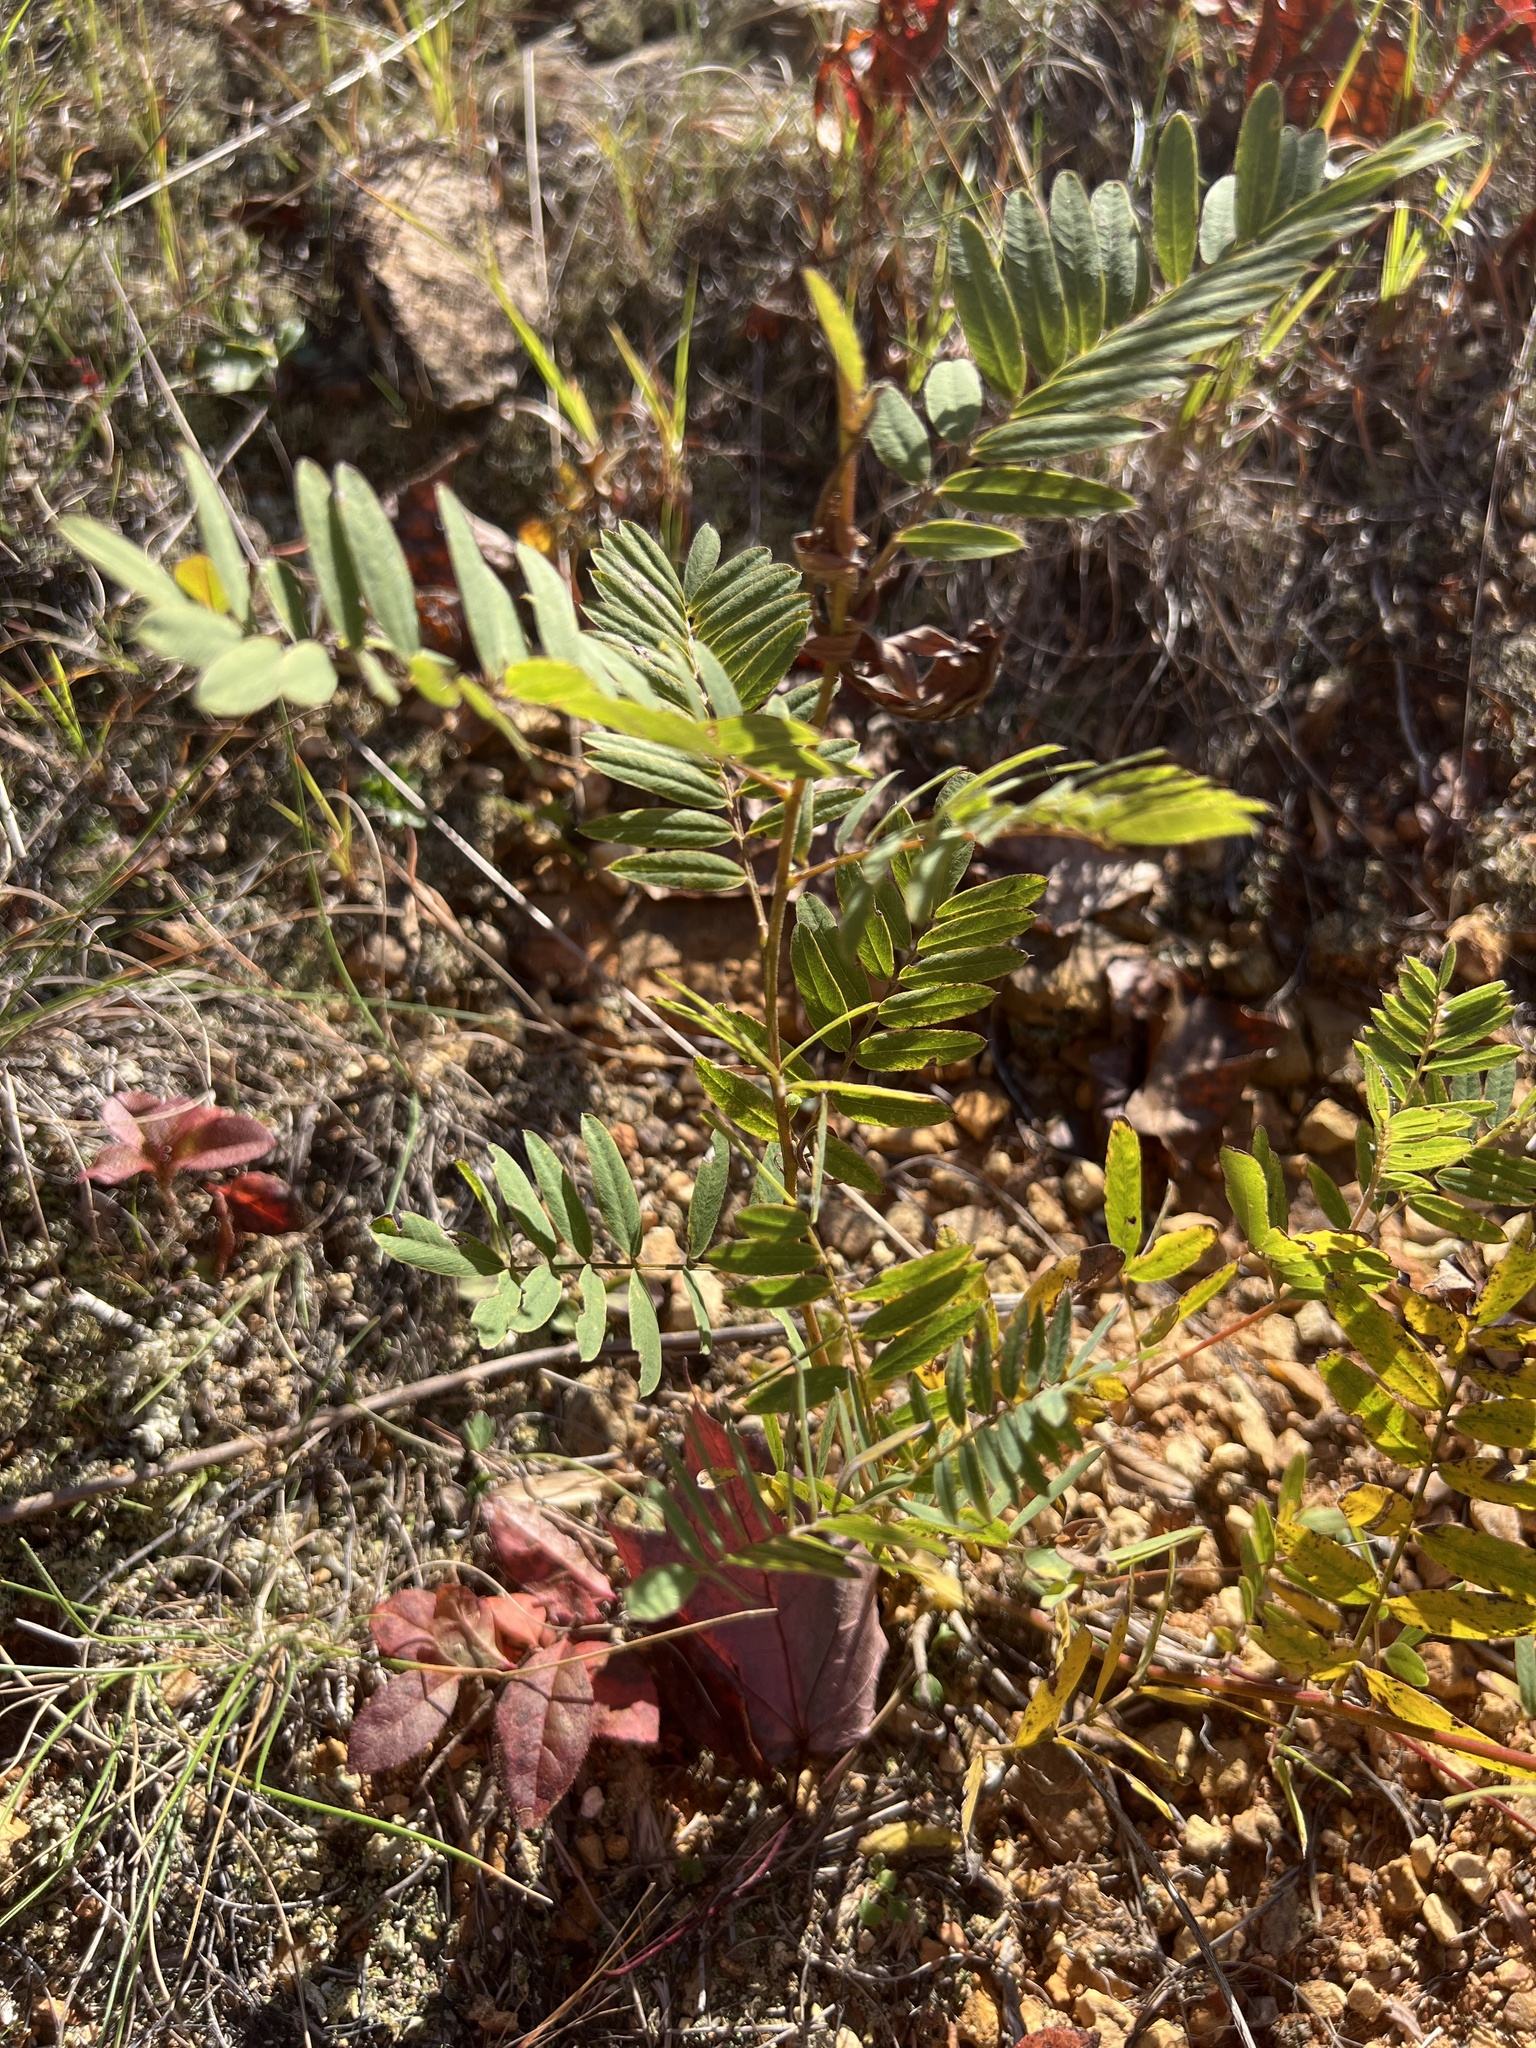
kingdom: Plantae
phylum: Tracheophyta
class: Magnoliopsida
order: Fabales
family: Fabaceae
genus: Tephrosia
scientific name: Tephrosia virginiana
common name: Rabbit-pea
